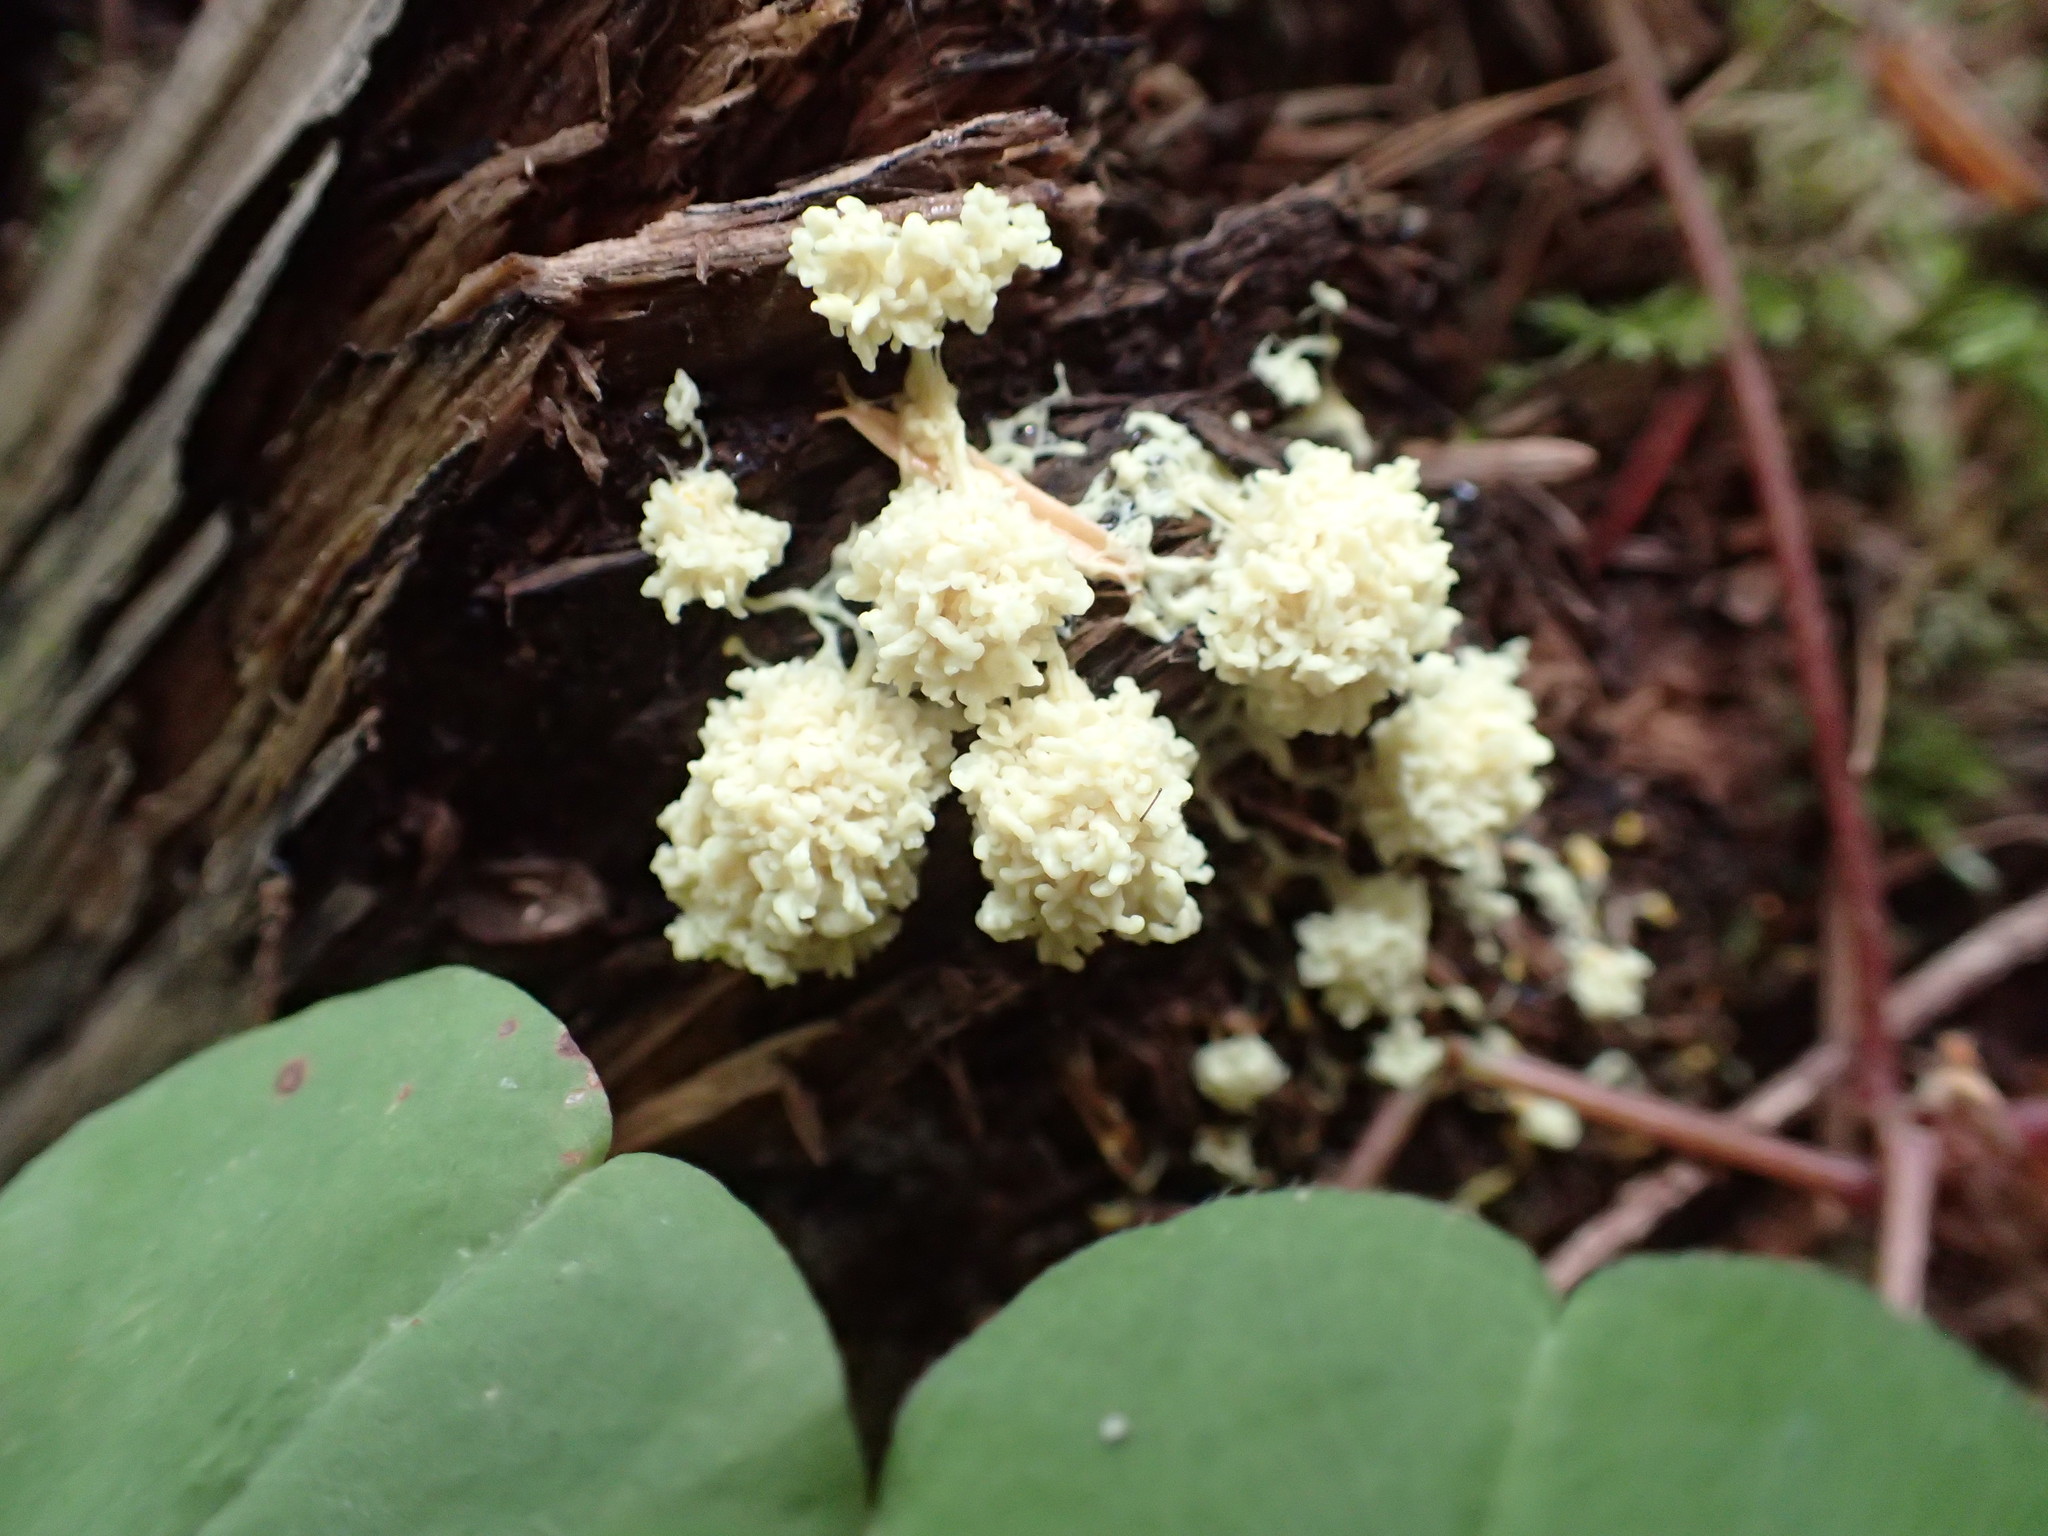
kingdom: Protozoa
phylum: Mycetozoa
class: Myxomycetes
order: Physarales
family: Physaraceae
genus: Fuligo
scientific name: Fuligo septica
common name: Dog vomit slime mold
